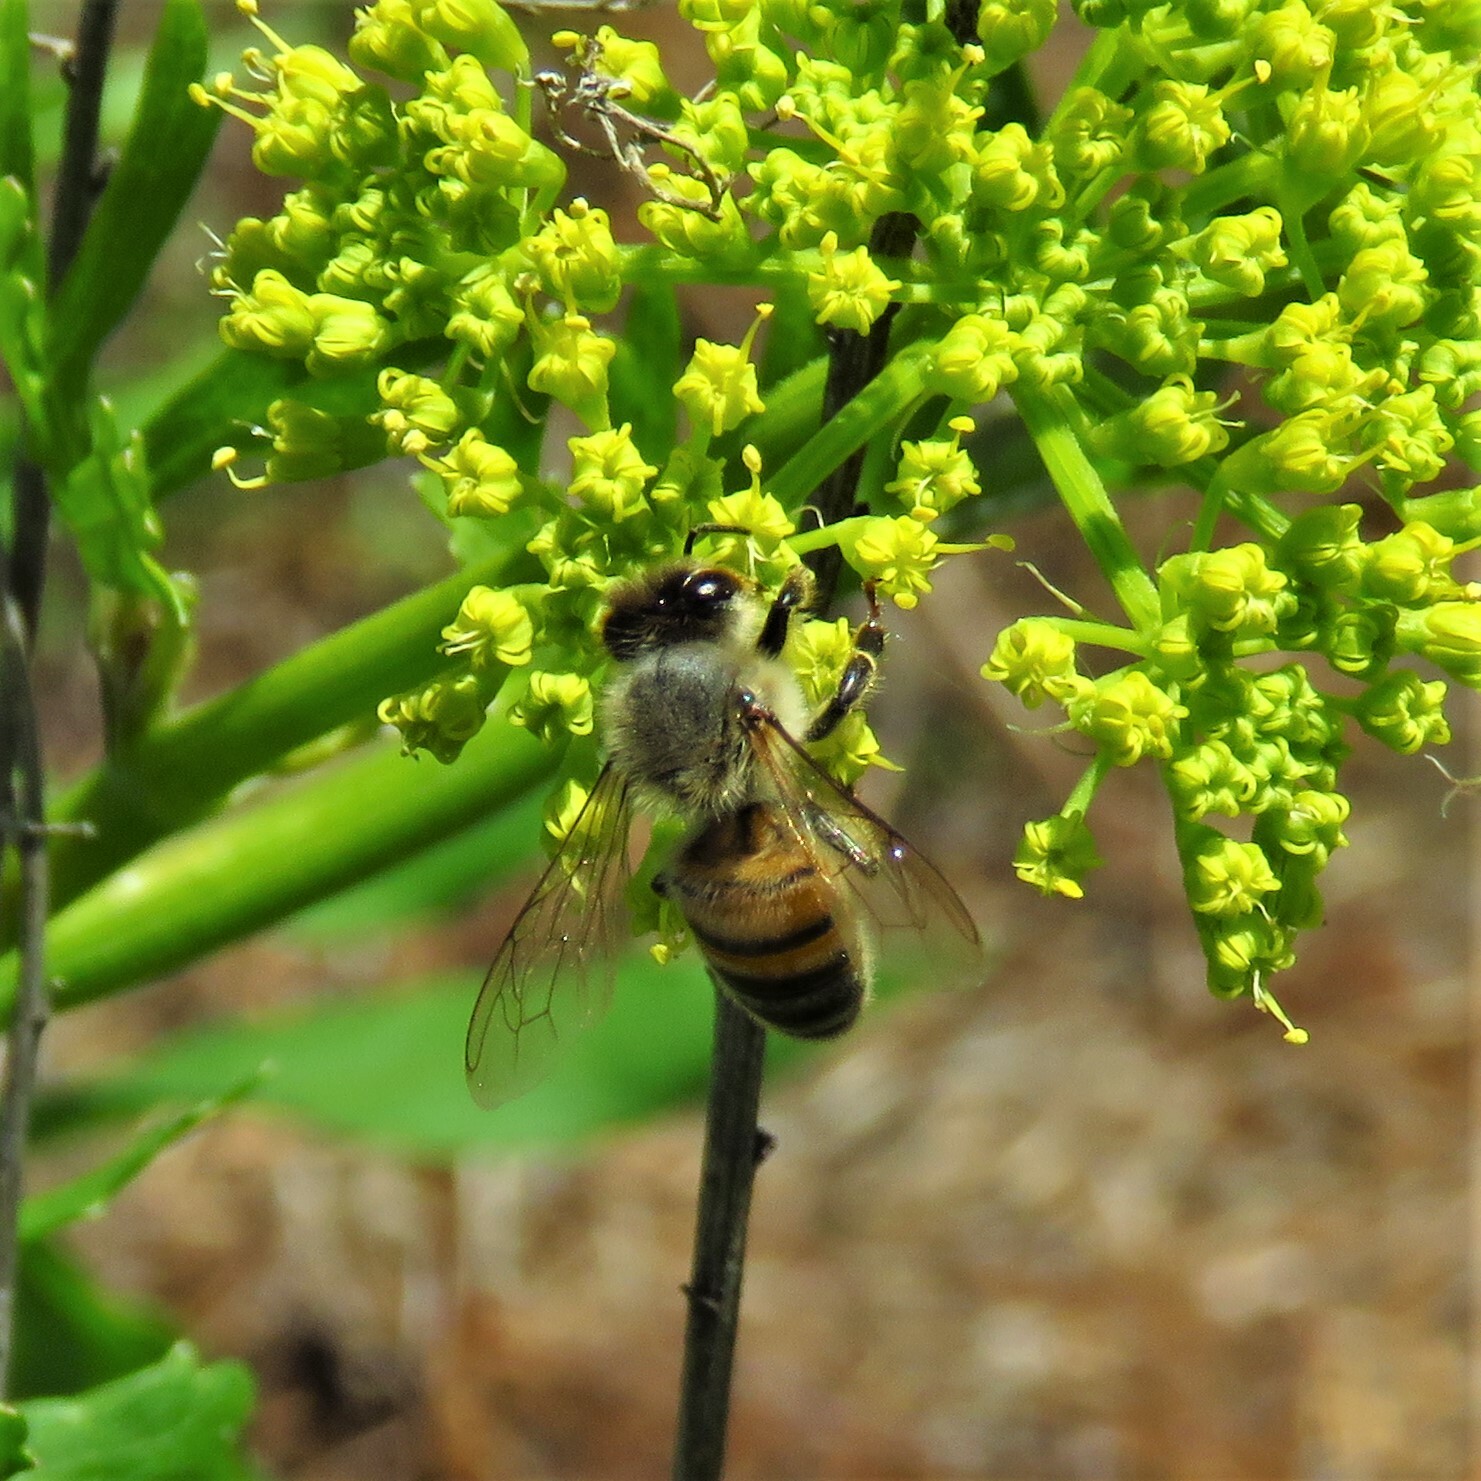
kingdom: Animalia
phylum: Arthropoda
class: Insecta
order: Hymenoptera
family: Apidae
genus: Apis
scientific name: Apis mellifera
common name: Honey bee
